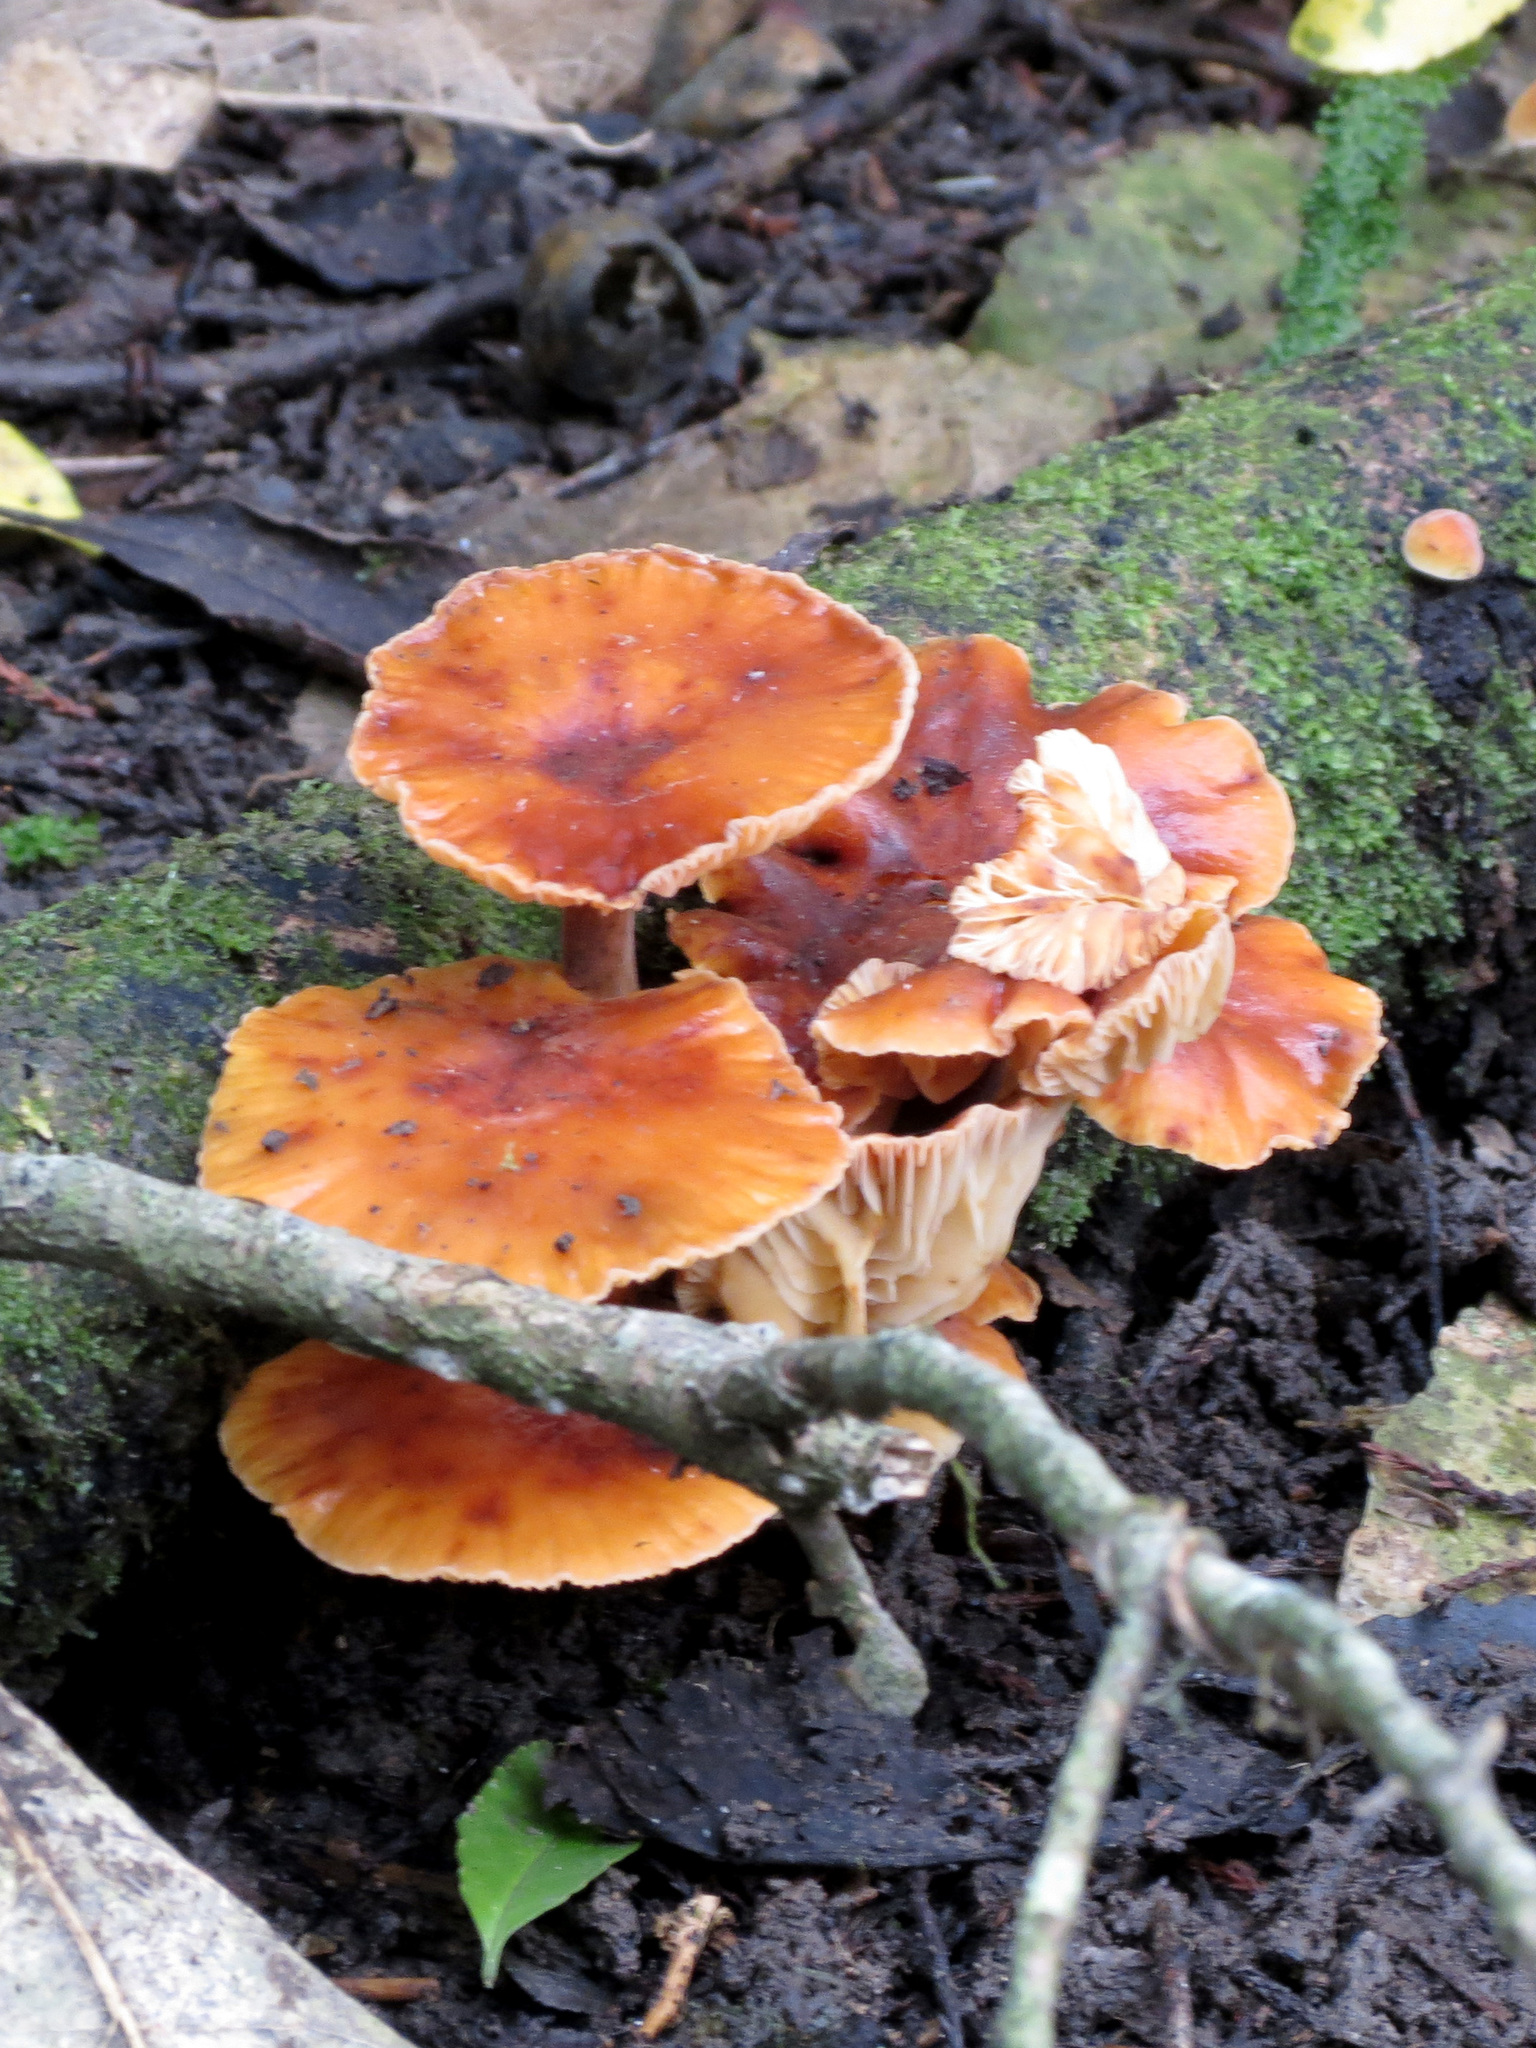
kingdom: Fungi
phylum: Basidiomycota
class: Agaricomycetes
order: Agaricales
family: Physalacriaceae
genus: Flammulina
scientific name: Flammulina velutipes
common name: Velvet shank
